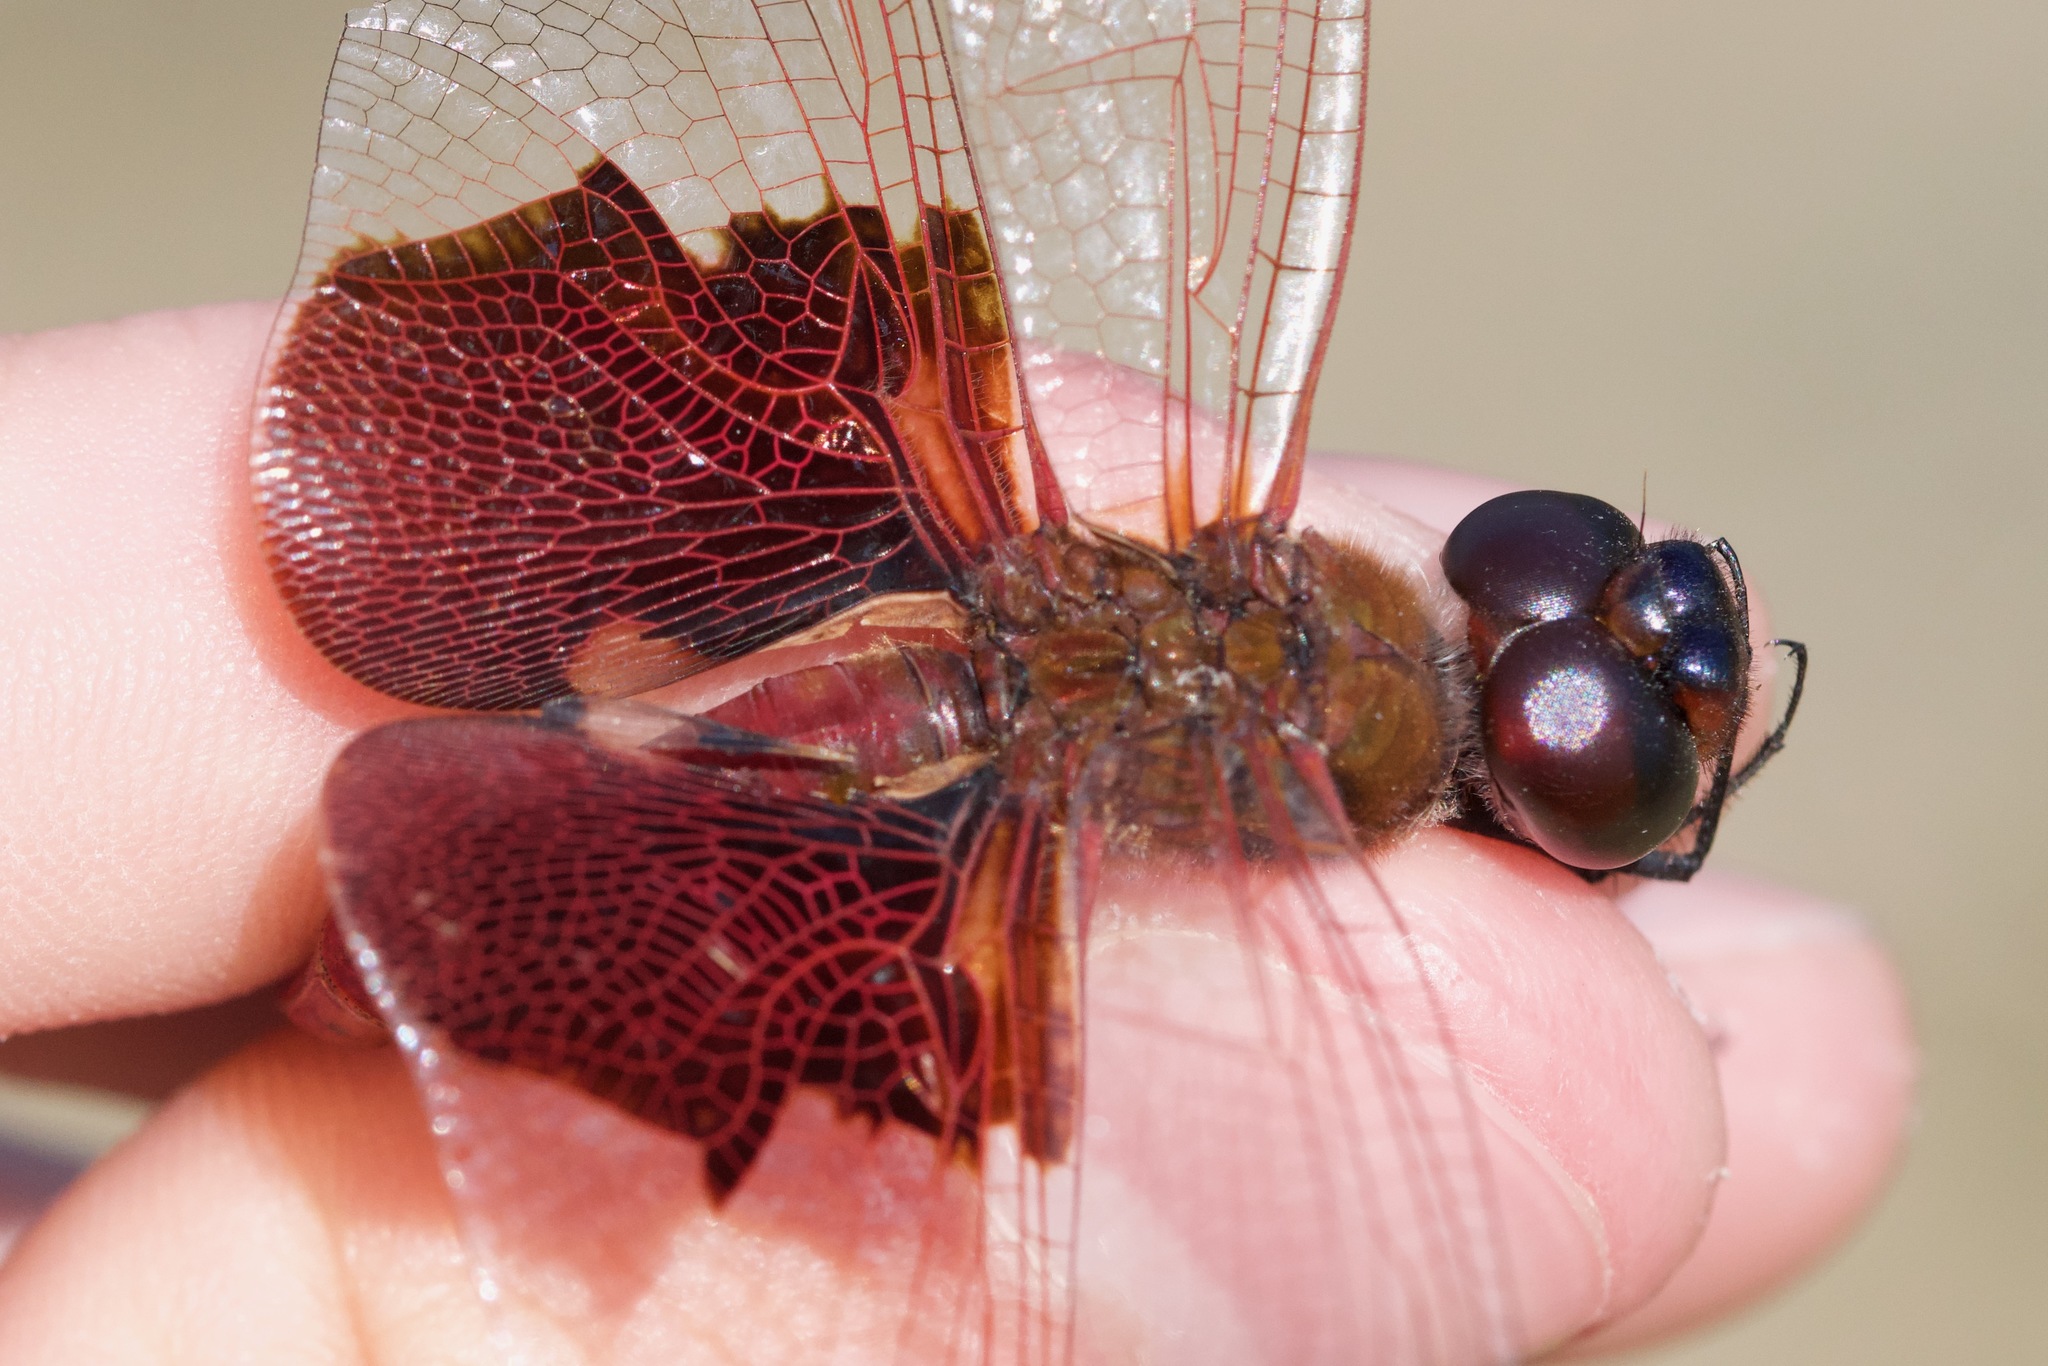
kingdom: Animalia
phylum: Arthropoda
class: Insecta
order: Odonata
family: Libellulidae
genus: Tramea
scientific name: Tramea carolina
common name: Carolina saddlebags
